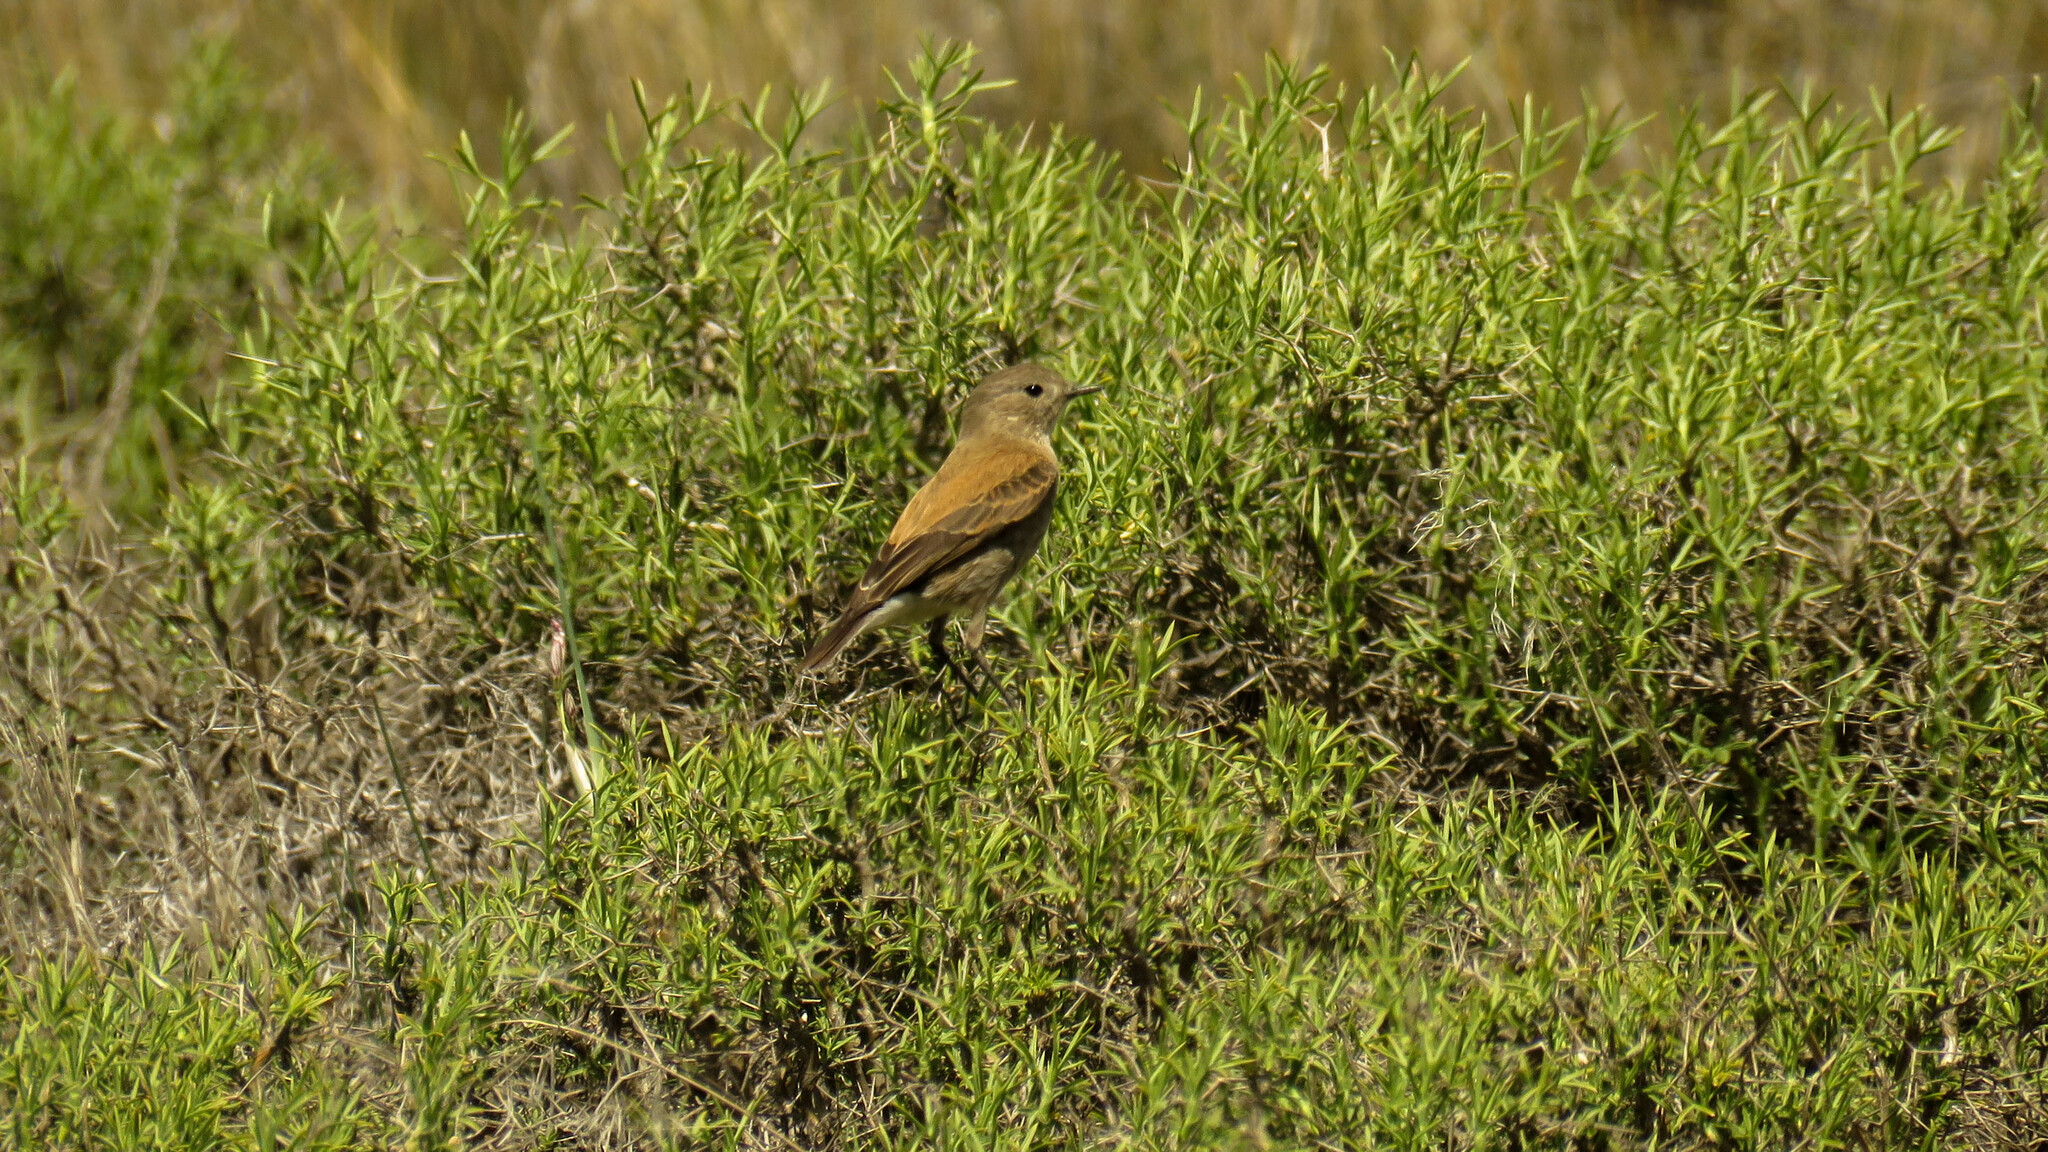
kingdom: Animalia
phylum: Chordata
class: Aves
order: Passeriformes
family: Tyrannidae
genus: Lessonia
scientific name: Lessonia rufa
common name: Austral negrito
